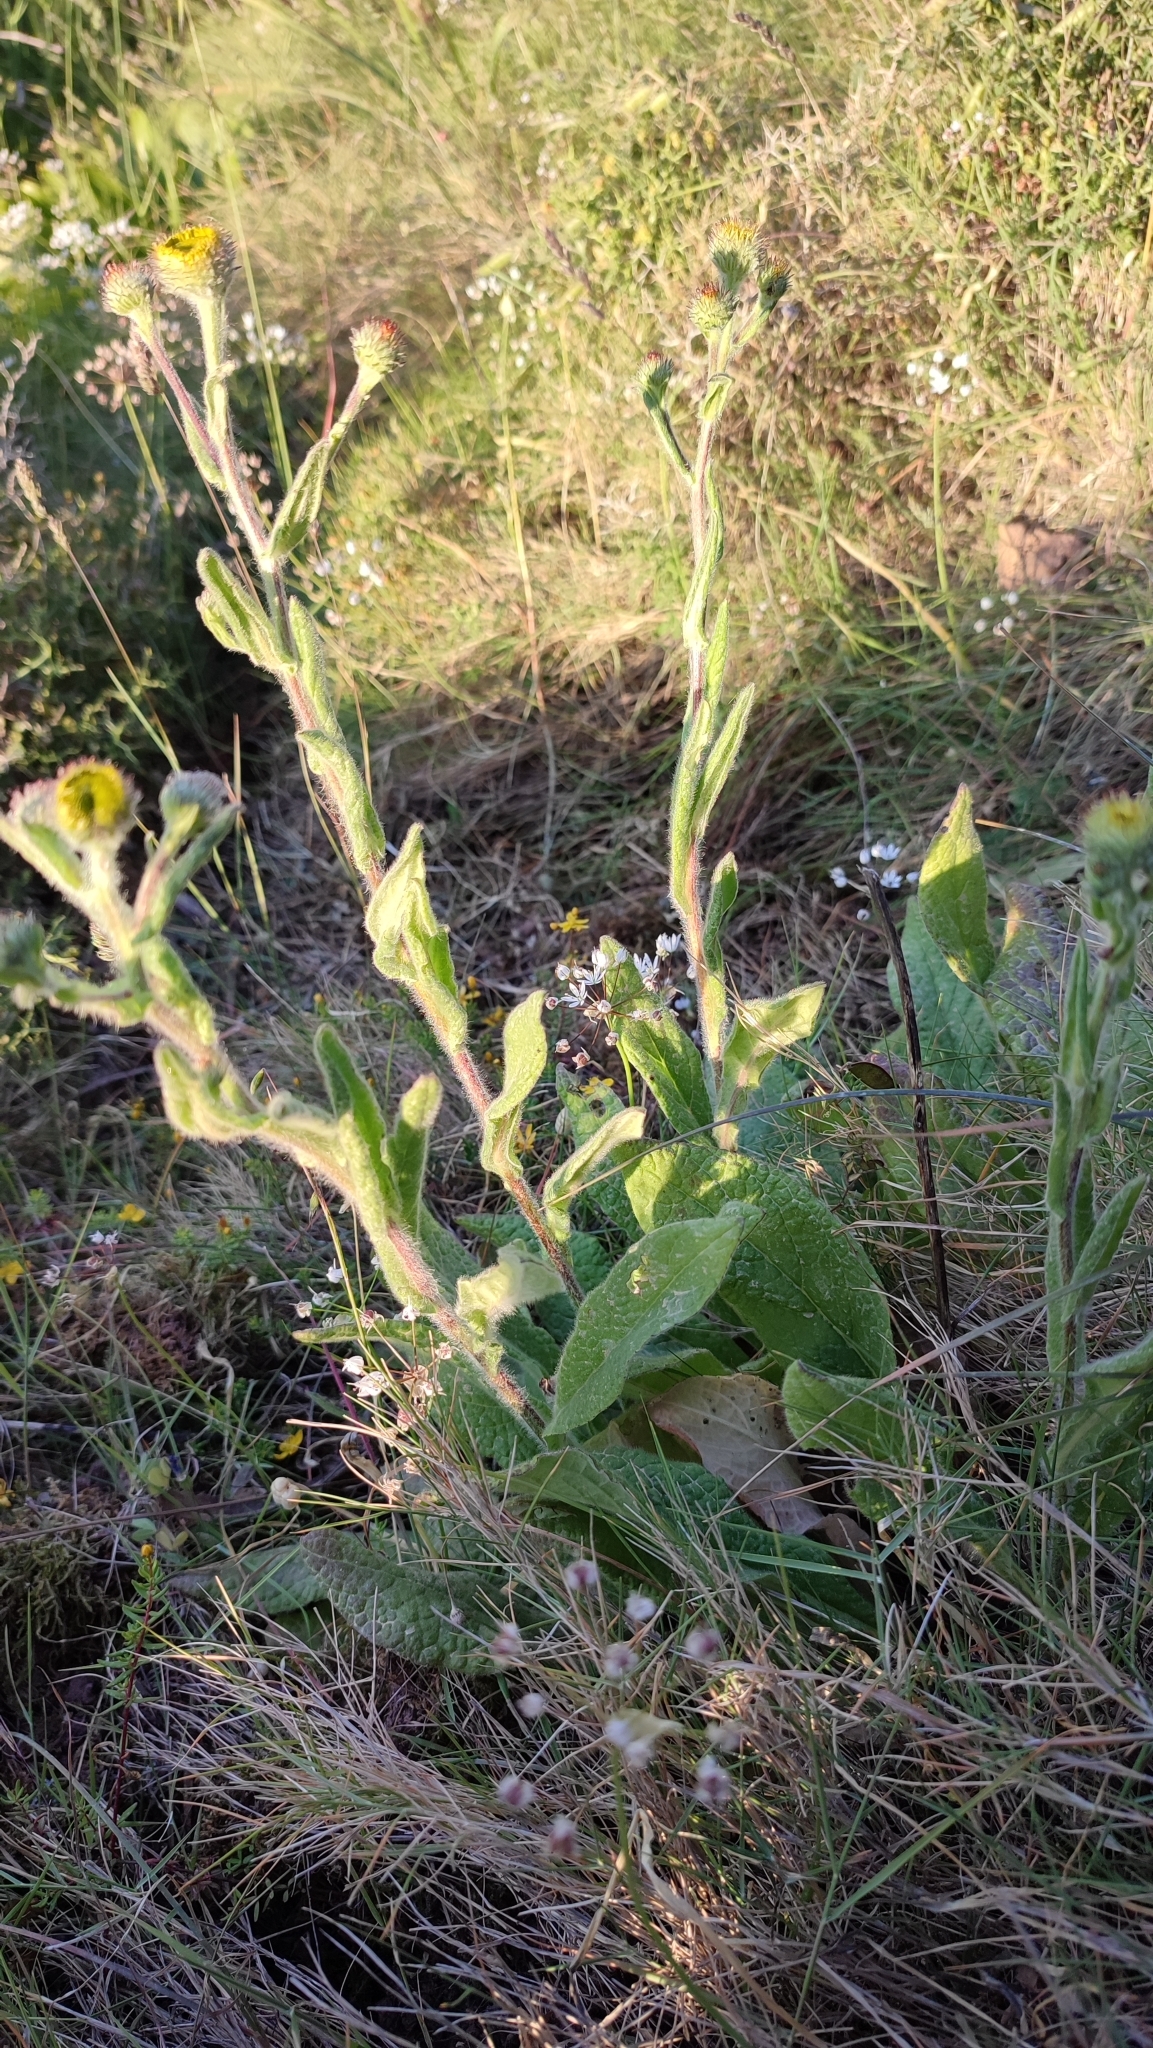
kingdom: Plantae
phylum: Tracheophyta
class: Magnoliopsida
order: Asterales
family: Asteraceae
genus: Pulicaria
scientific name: Pulicaria odora
